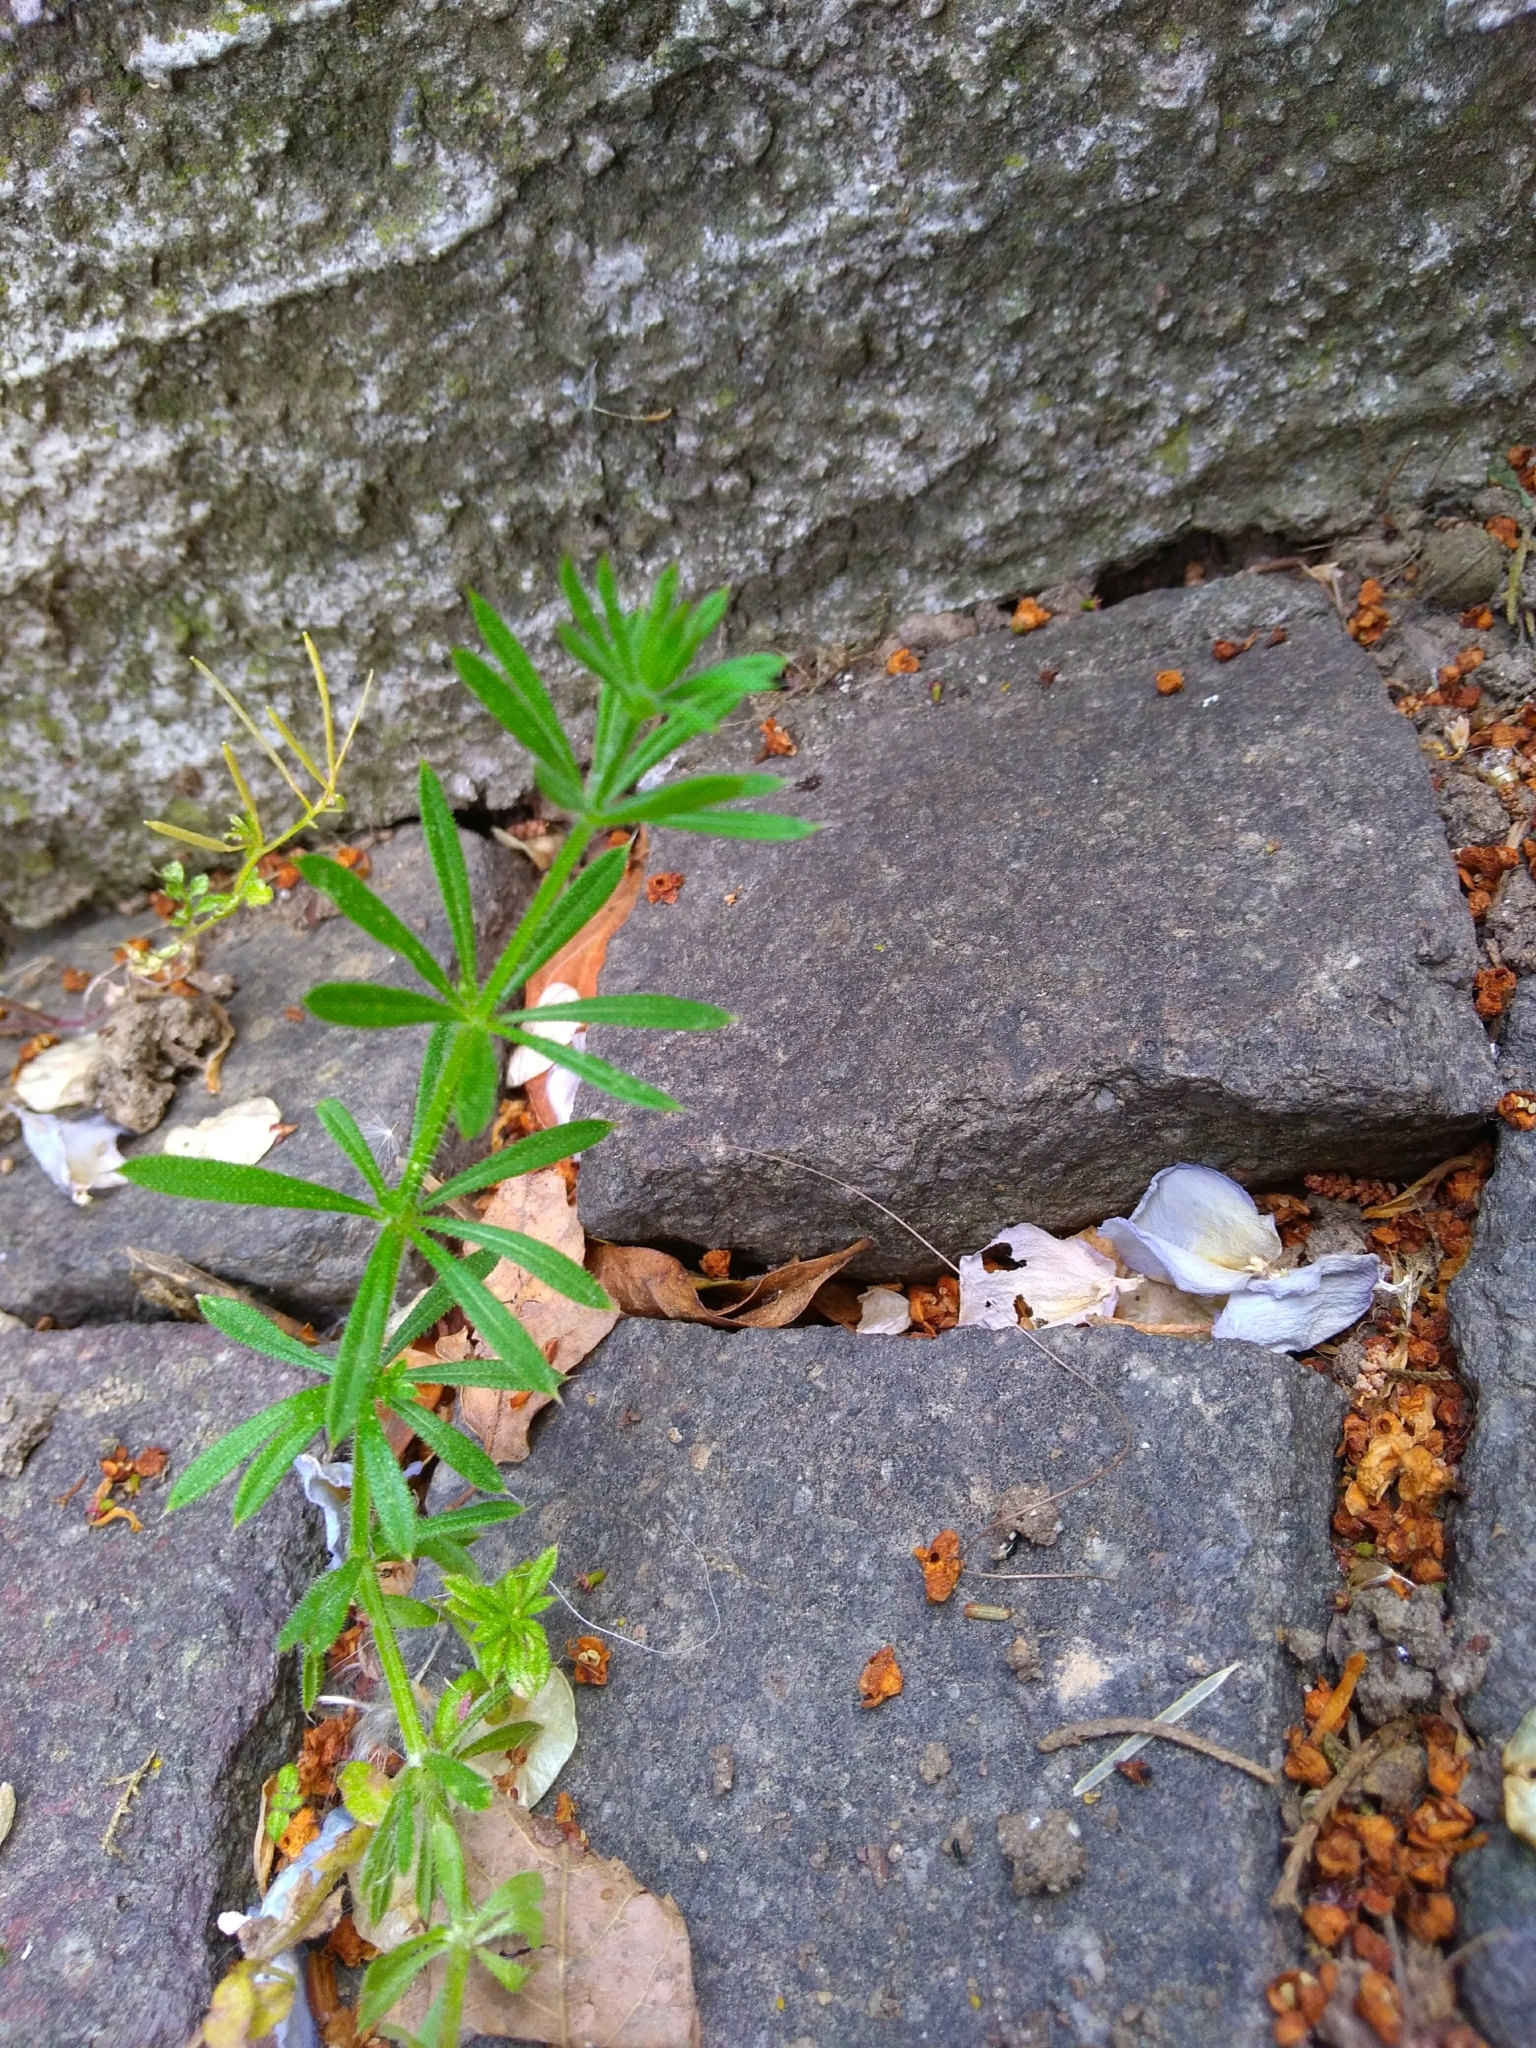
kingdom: Plantae
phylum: Tracheophyta
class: Magnoliopsida
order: Gentianales
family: Rubiaceae
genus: Galium
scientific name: Galium aparine
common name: Cleavers
